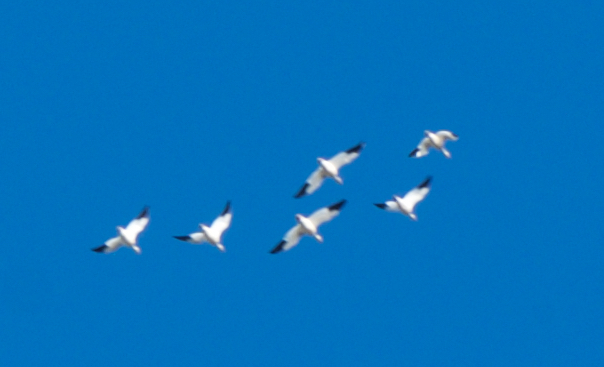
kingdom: Animalia
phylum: Chordata
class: Aves
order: Anseriformes
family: Anatidae
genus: Anser
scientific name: Anser caerulescens
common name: Snow goose
